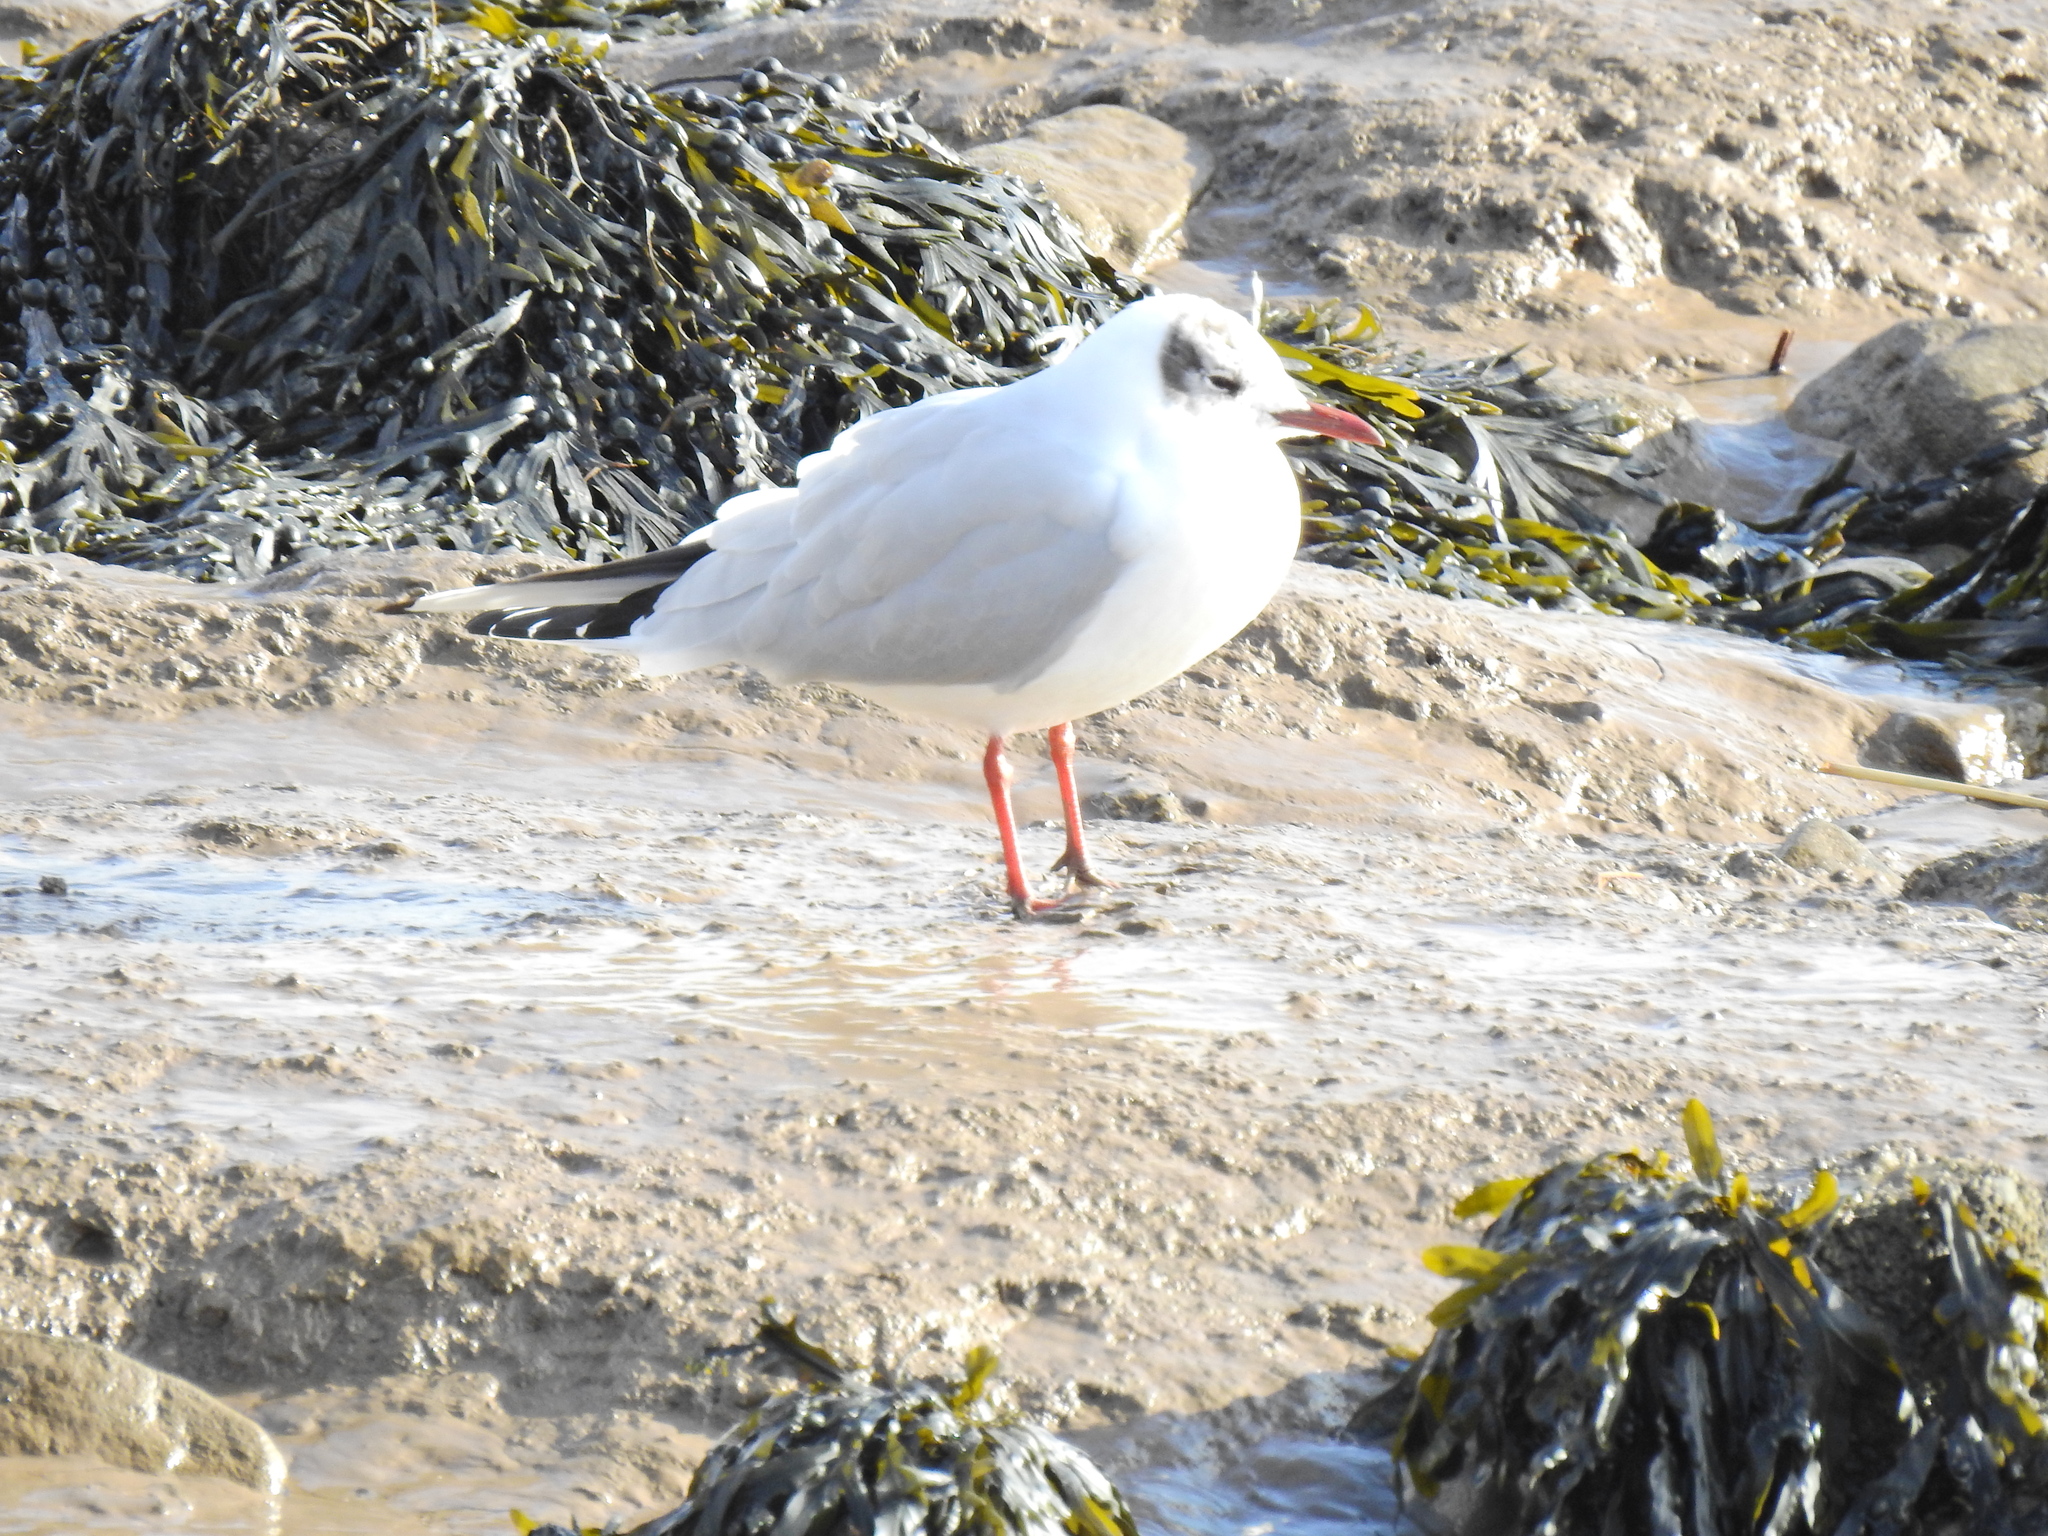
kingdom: Animalia
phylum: Chordata
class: Aves
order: Charadriiformes
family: Laridae
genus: Chroicocephalus
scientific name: Chroicocephalus ridibundus
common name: Black-headed gull
